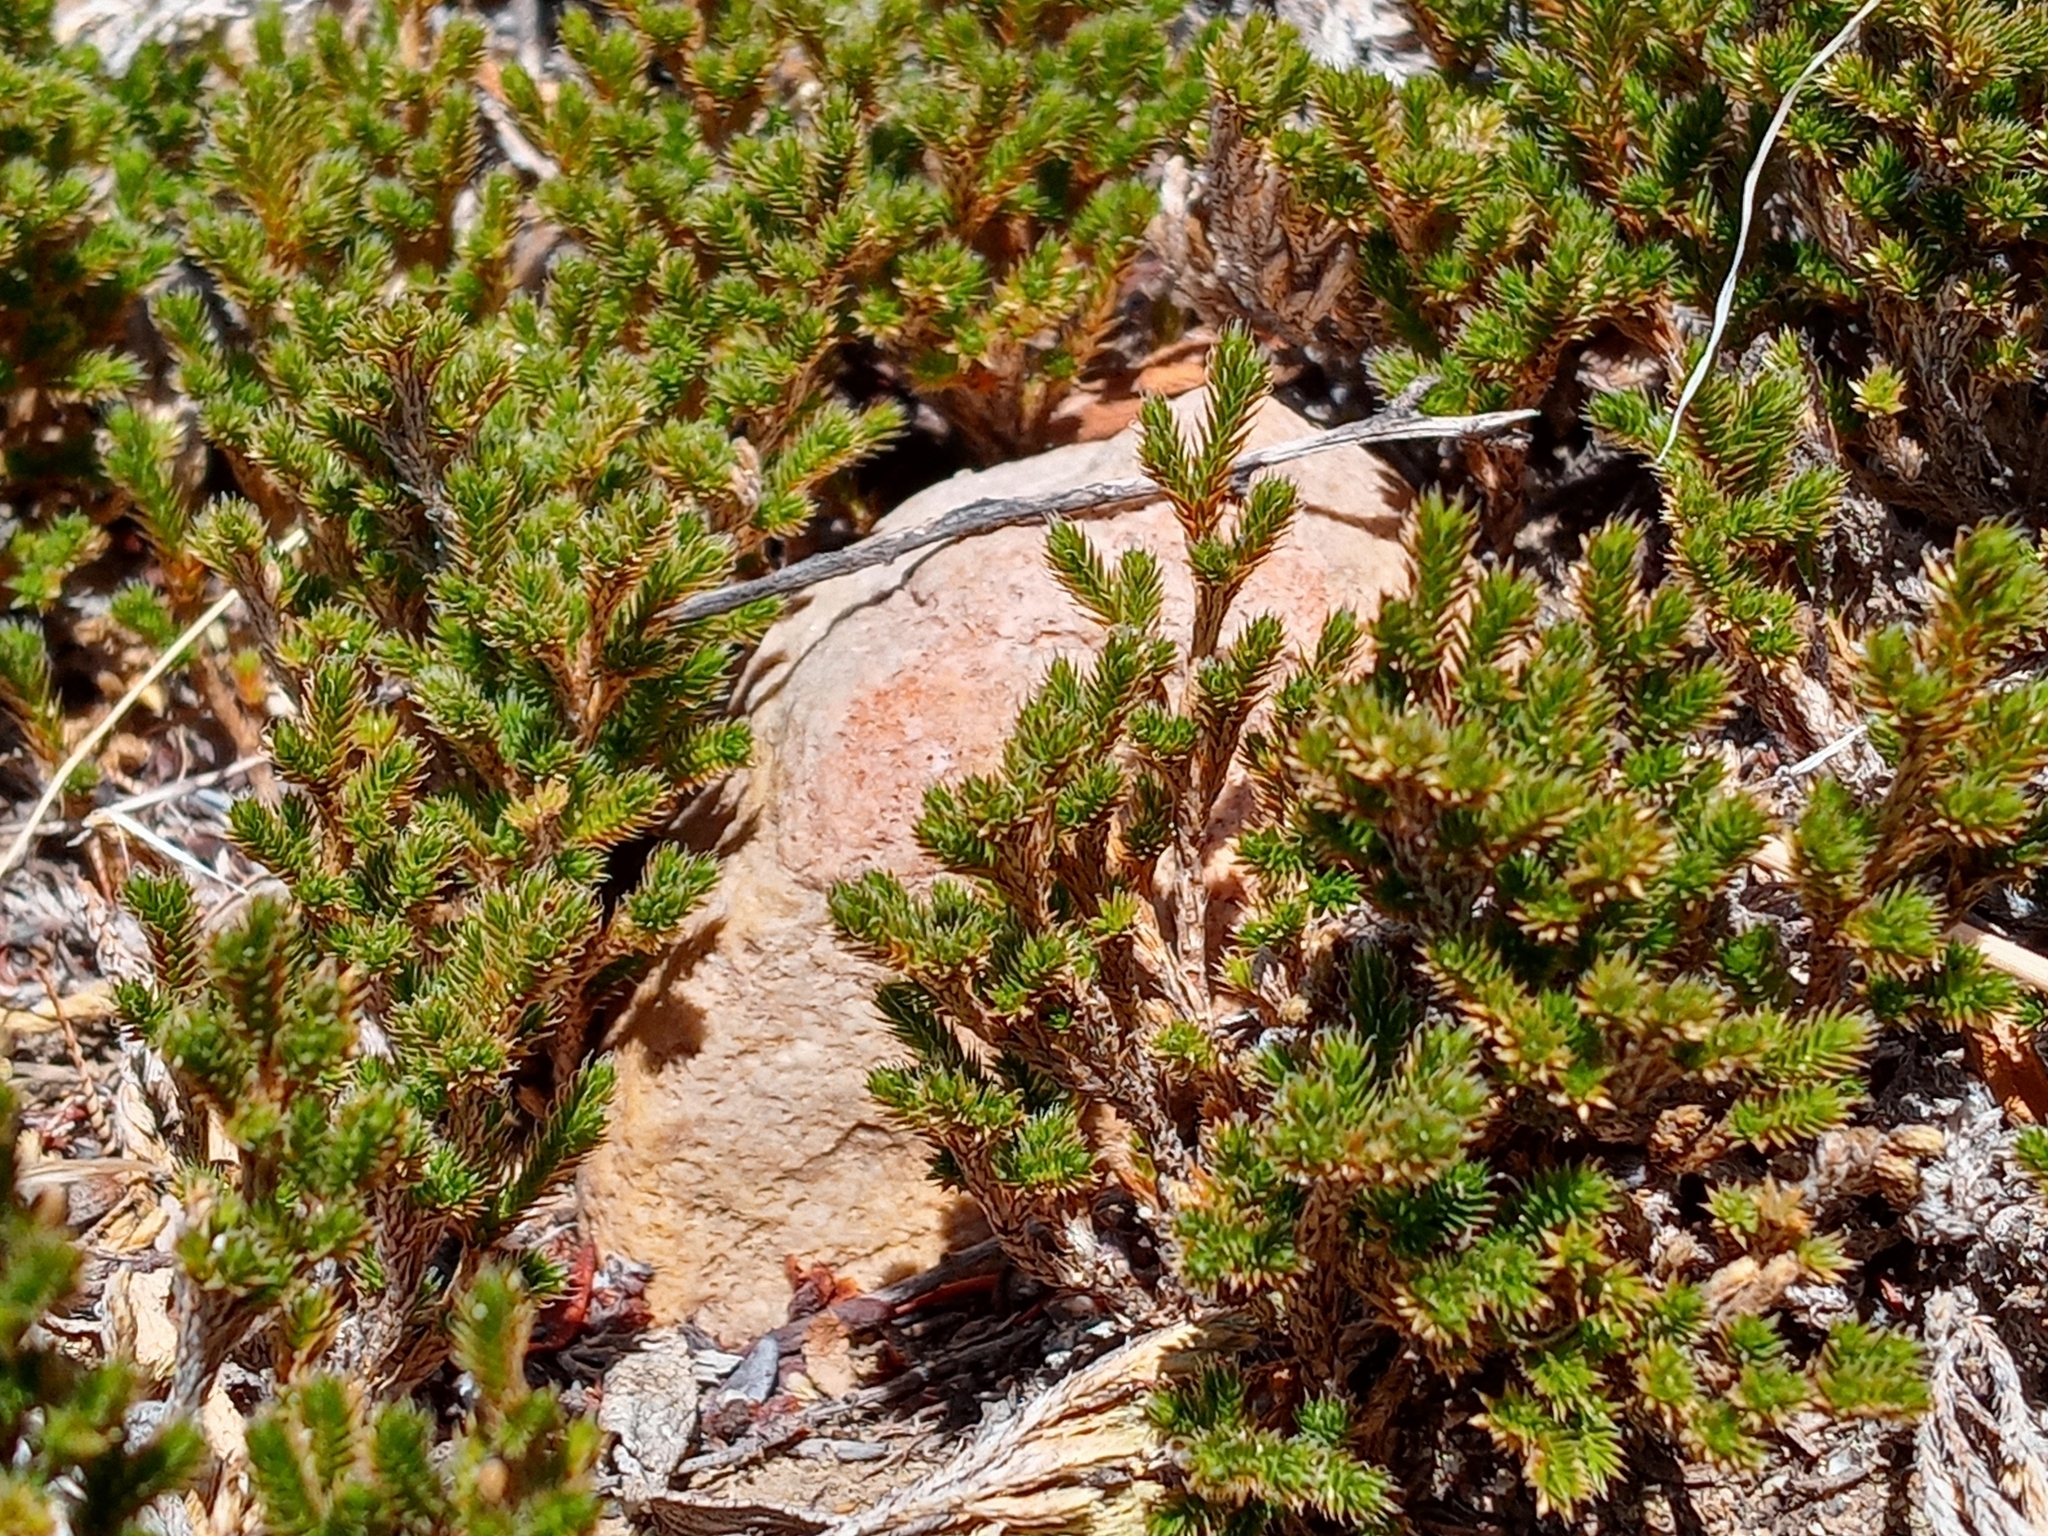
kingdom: Plantae
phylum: Tracheophyta
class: Lycopodiopsida
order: Selaginellales
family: Selaginellaceae
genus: Selaginella
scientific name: Selaginella bigelovii
